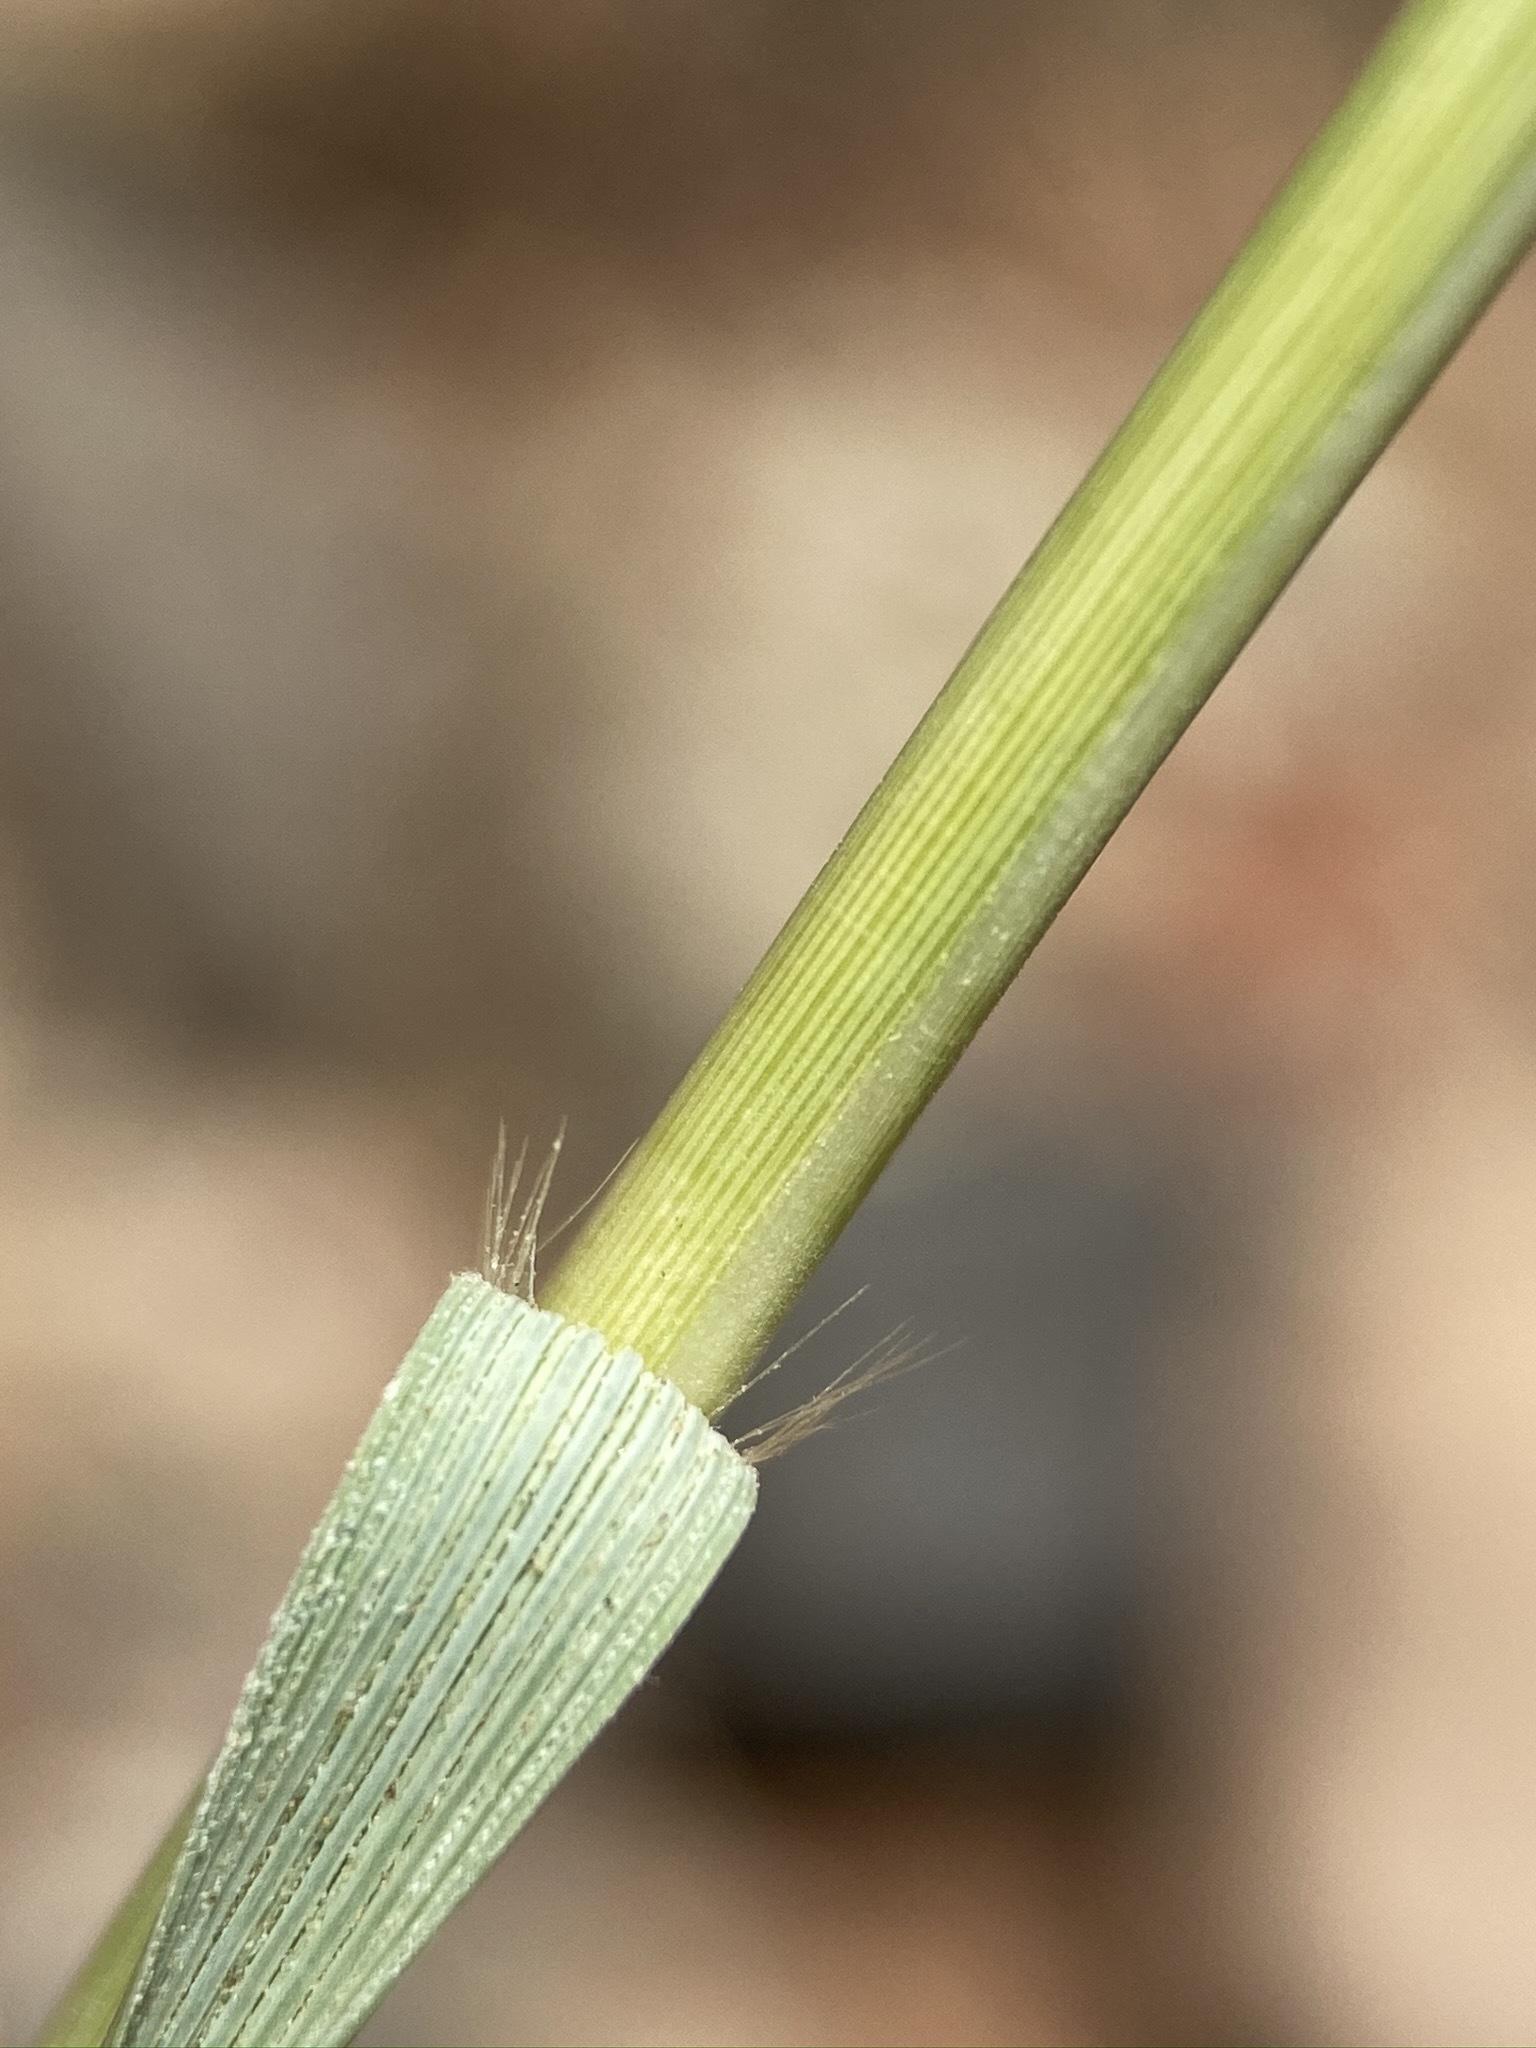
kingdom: Plantae
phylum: Tracheophyta
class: Liliopsida
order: Poales
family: Poaceae
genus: Sporobolus
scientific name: Sporobolus airoides
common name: Alkali sacaton
